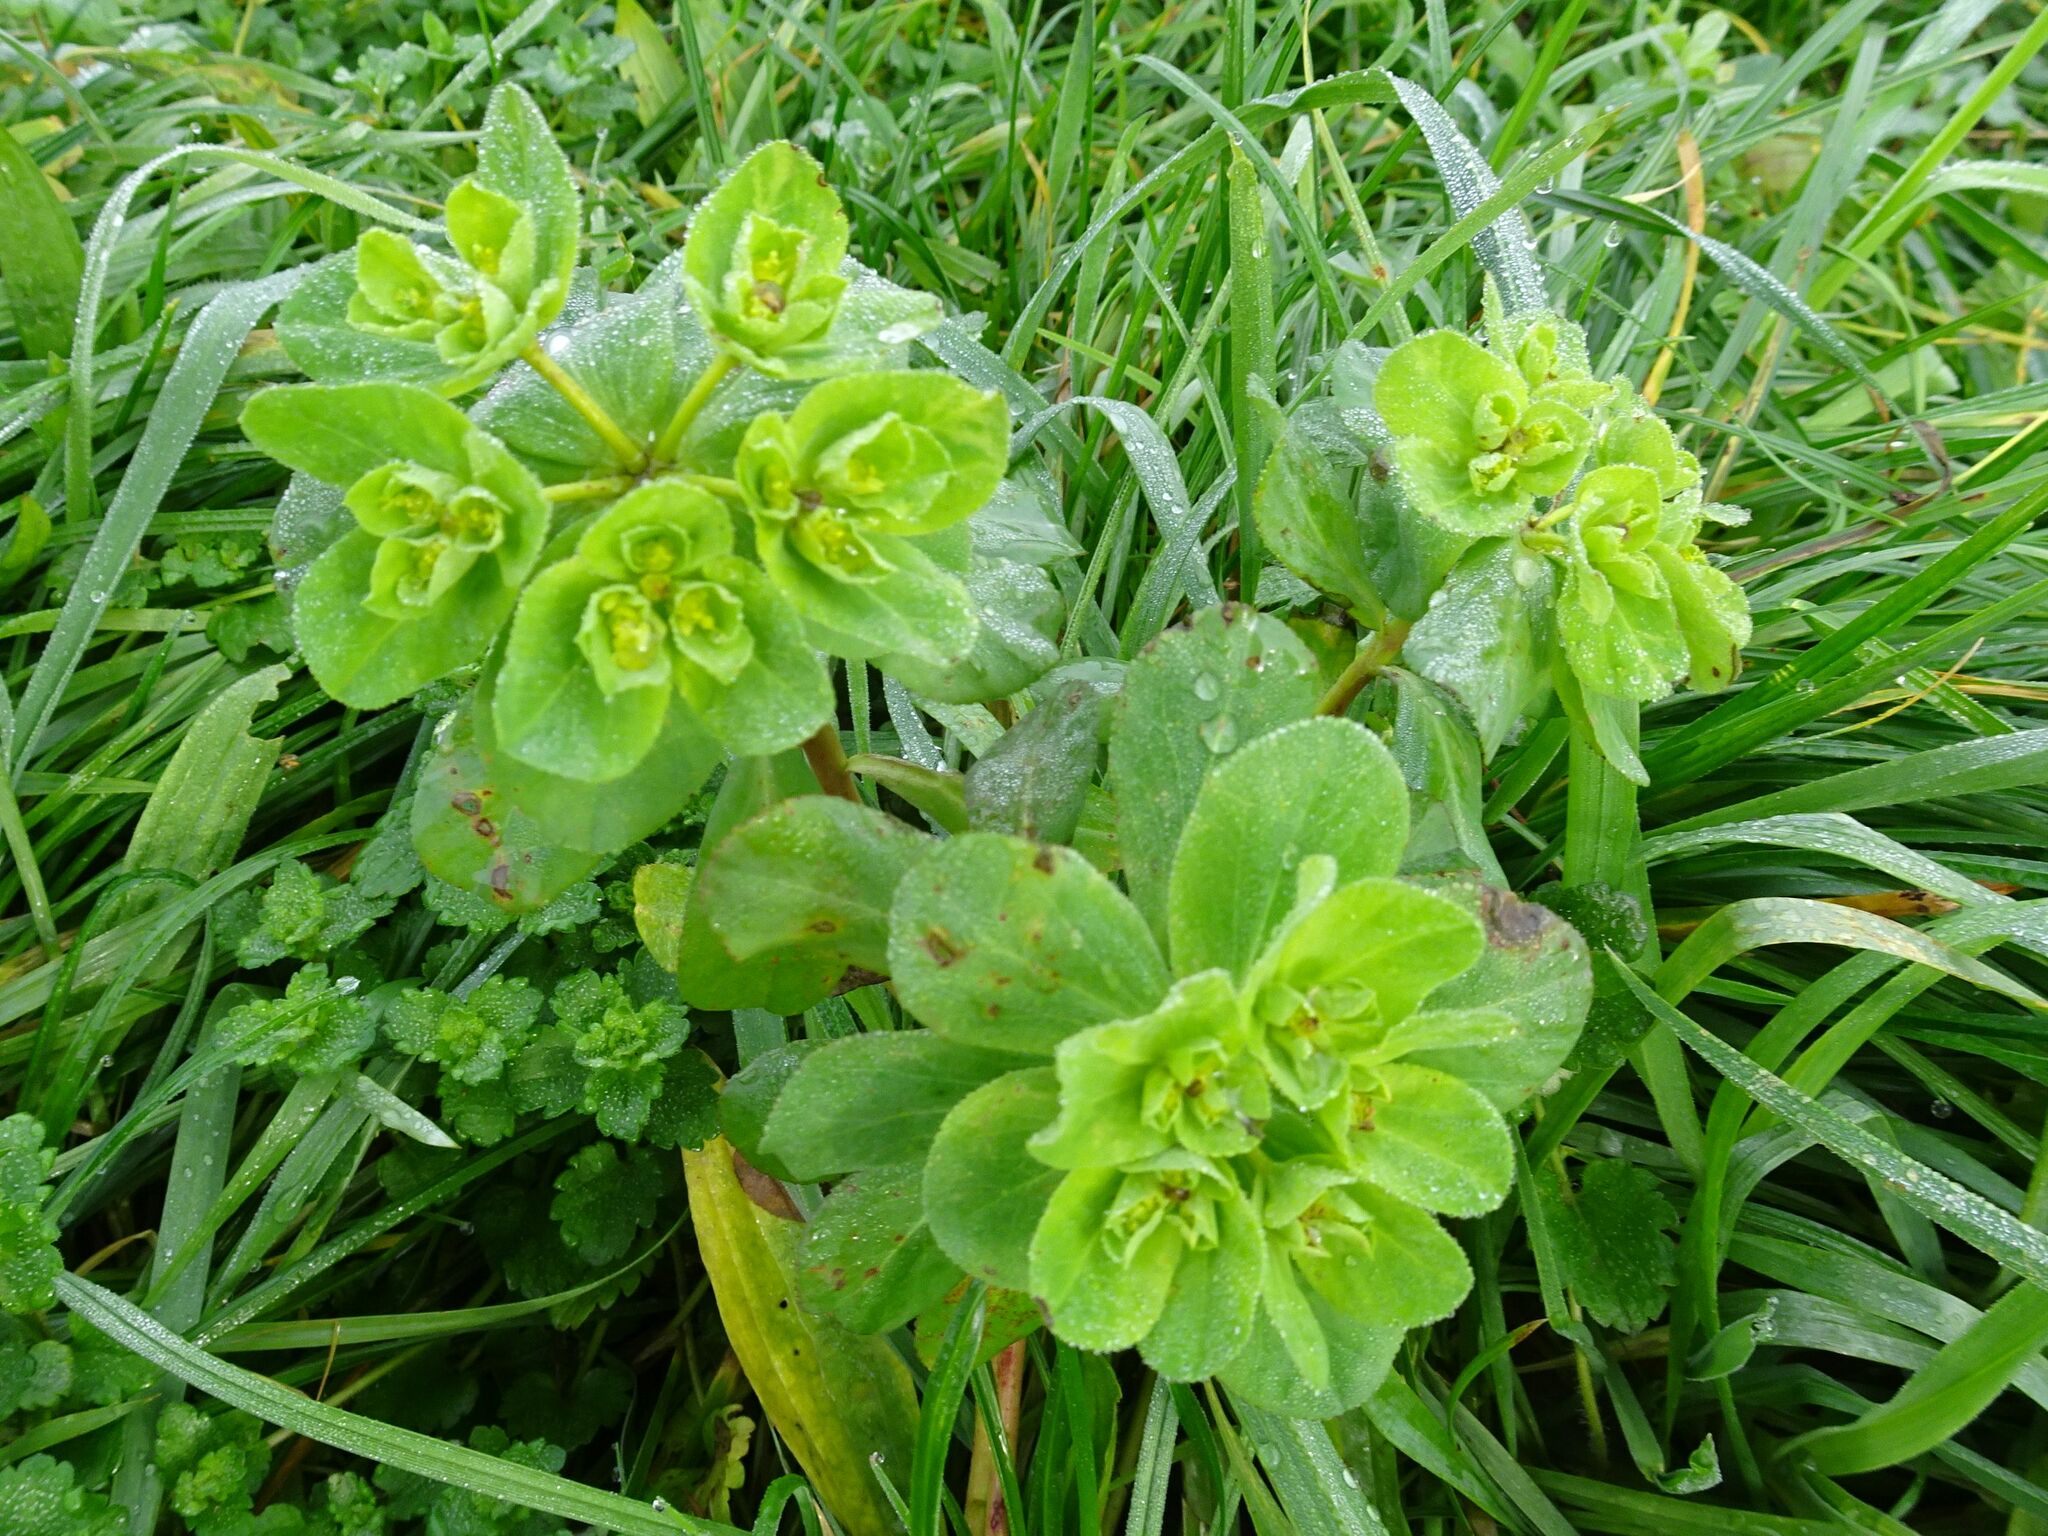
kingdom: Plantae
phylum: Tracheophyta
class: Magnoliopsida
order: Malpighiales
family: Euphorbiaceae
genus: Euphorbia
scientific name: Euphorbia helioscopia
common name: Sun spurge
